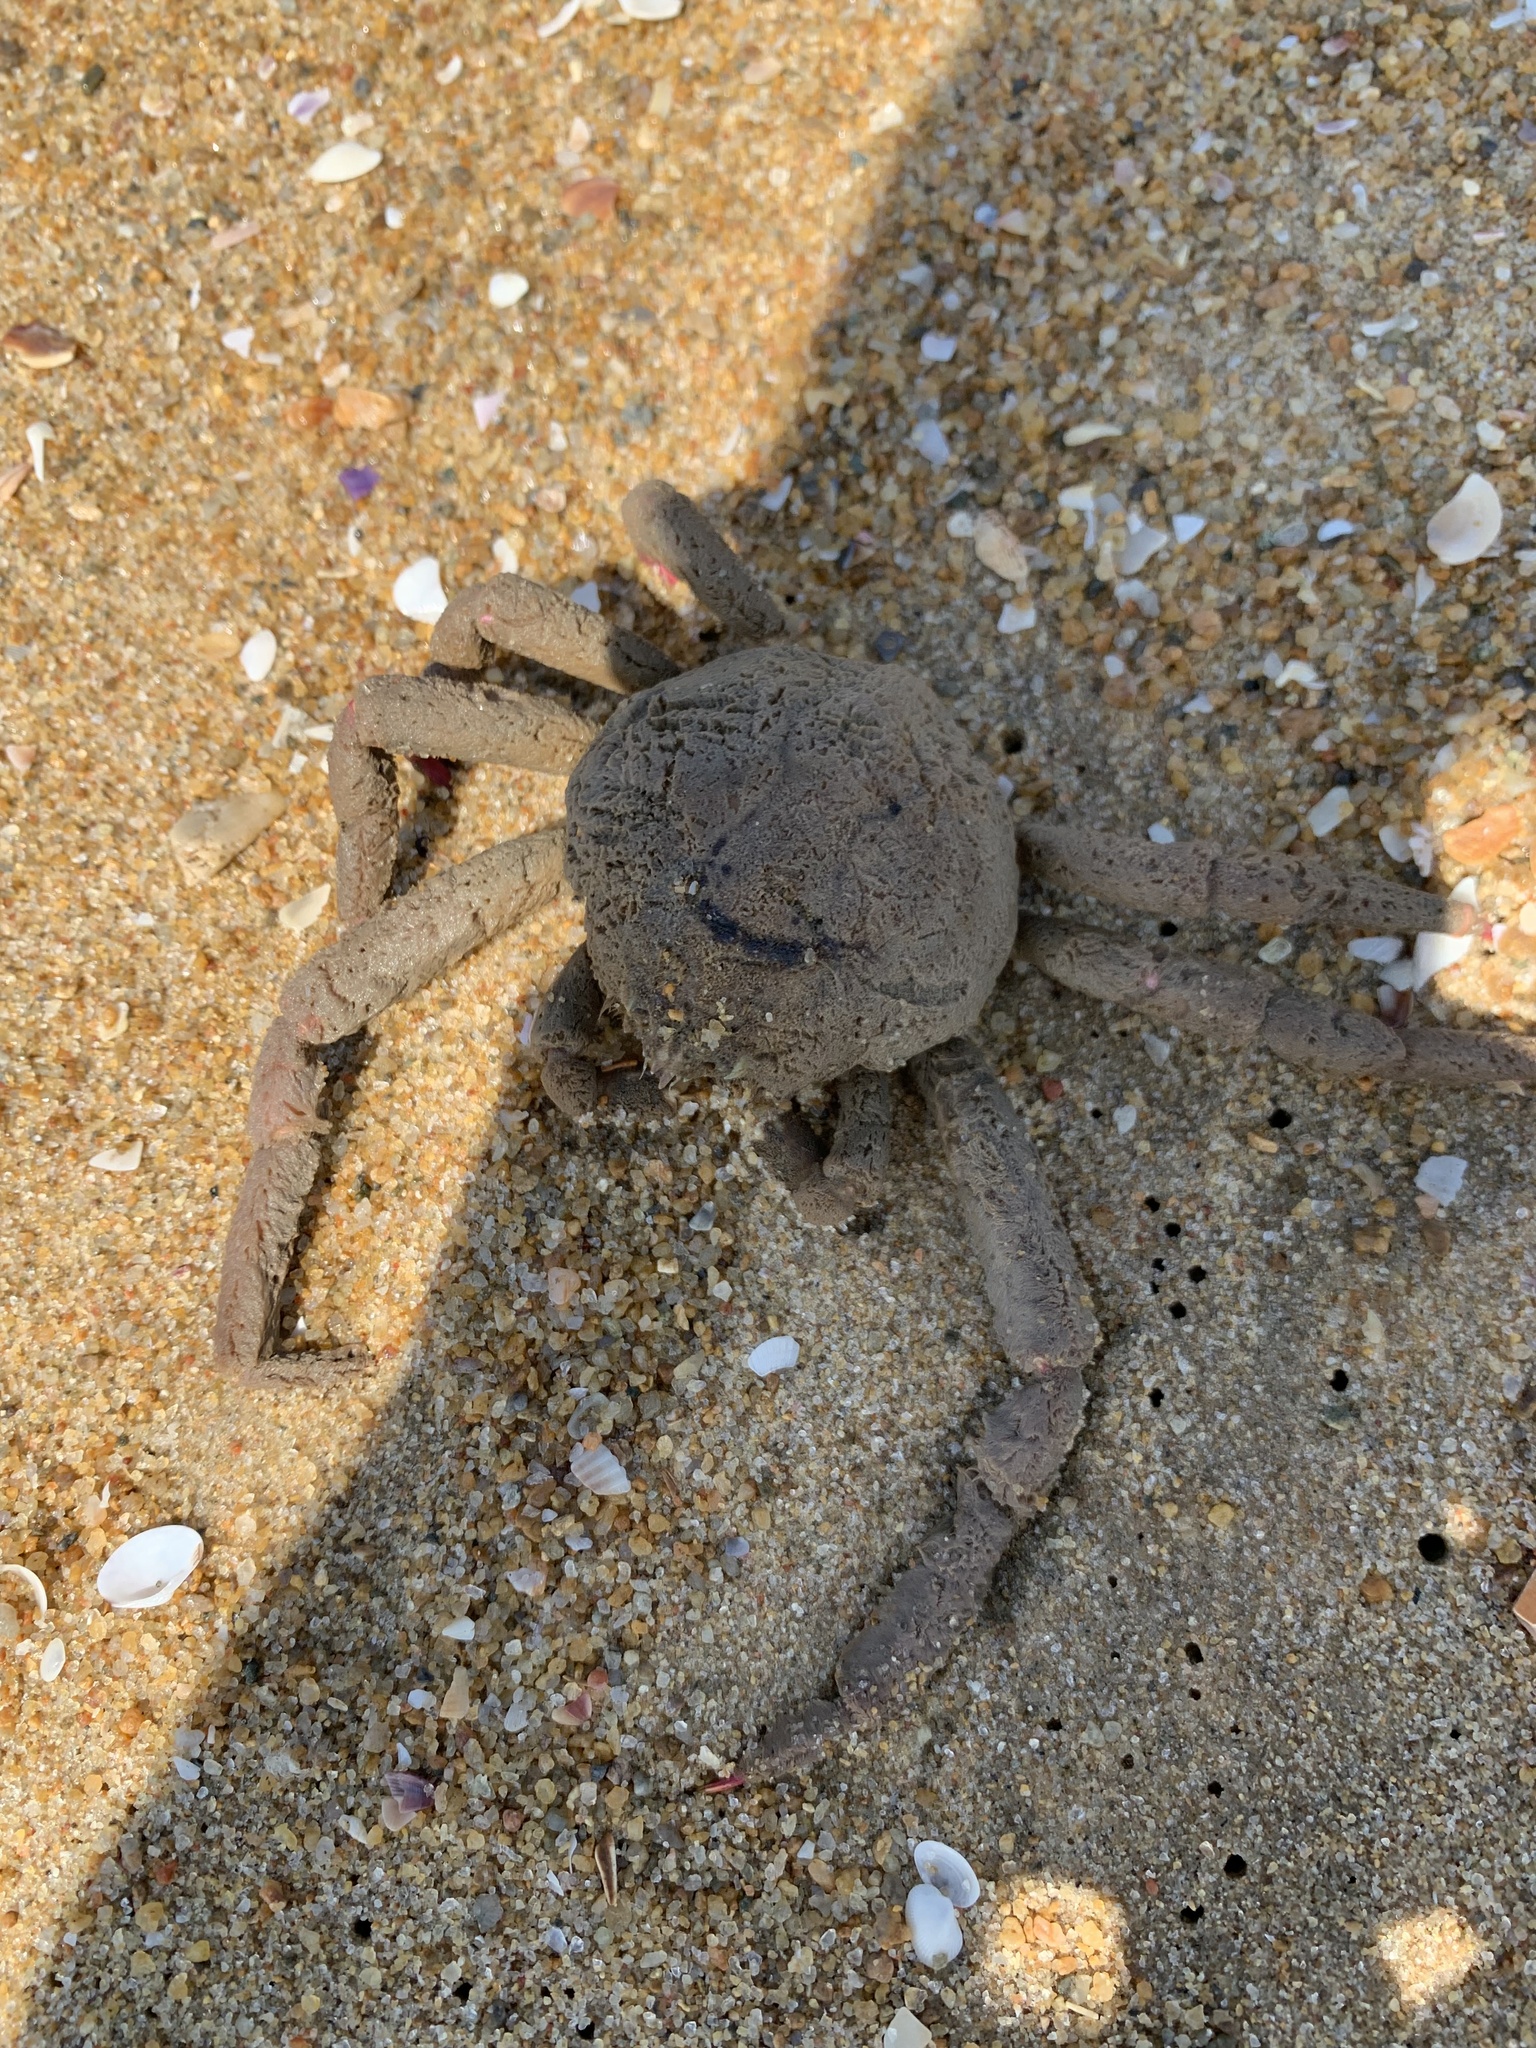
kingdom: Animalia
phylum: Arthropoda
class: Malacostraca
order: Decapoda
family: Epialtidae
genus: Doclea
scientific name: Doclea ovis
